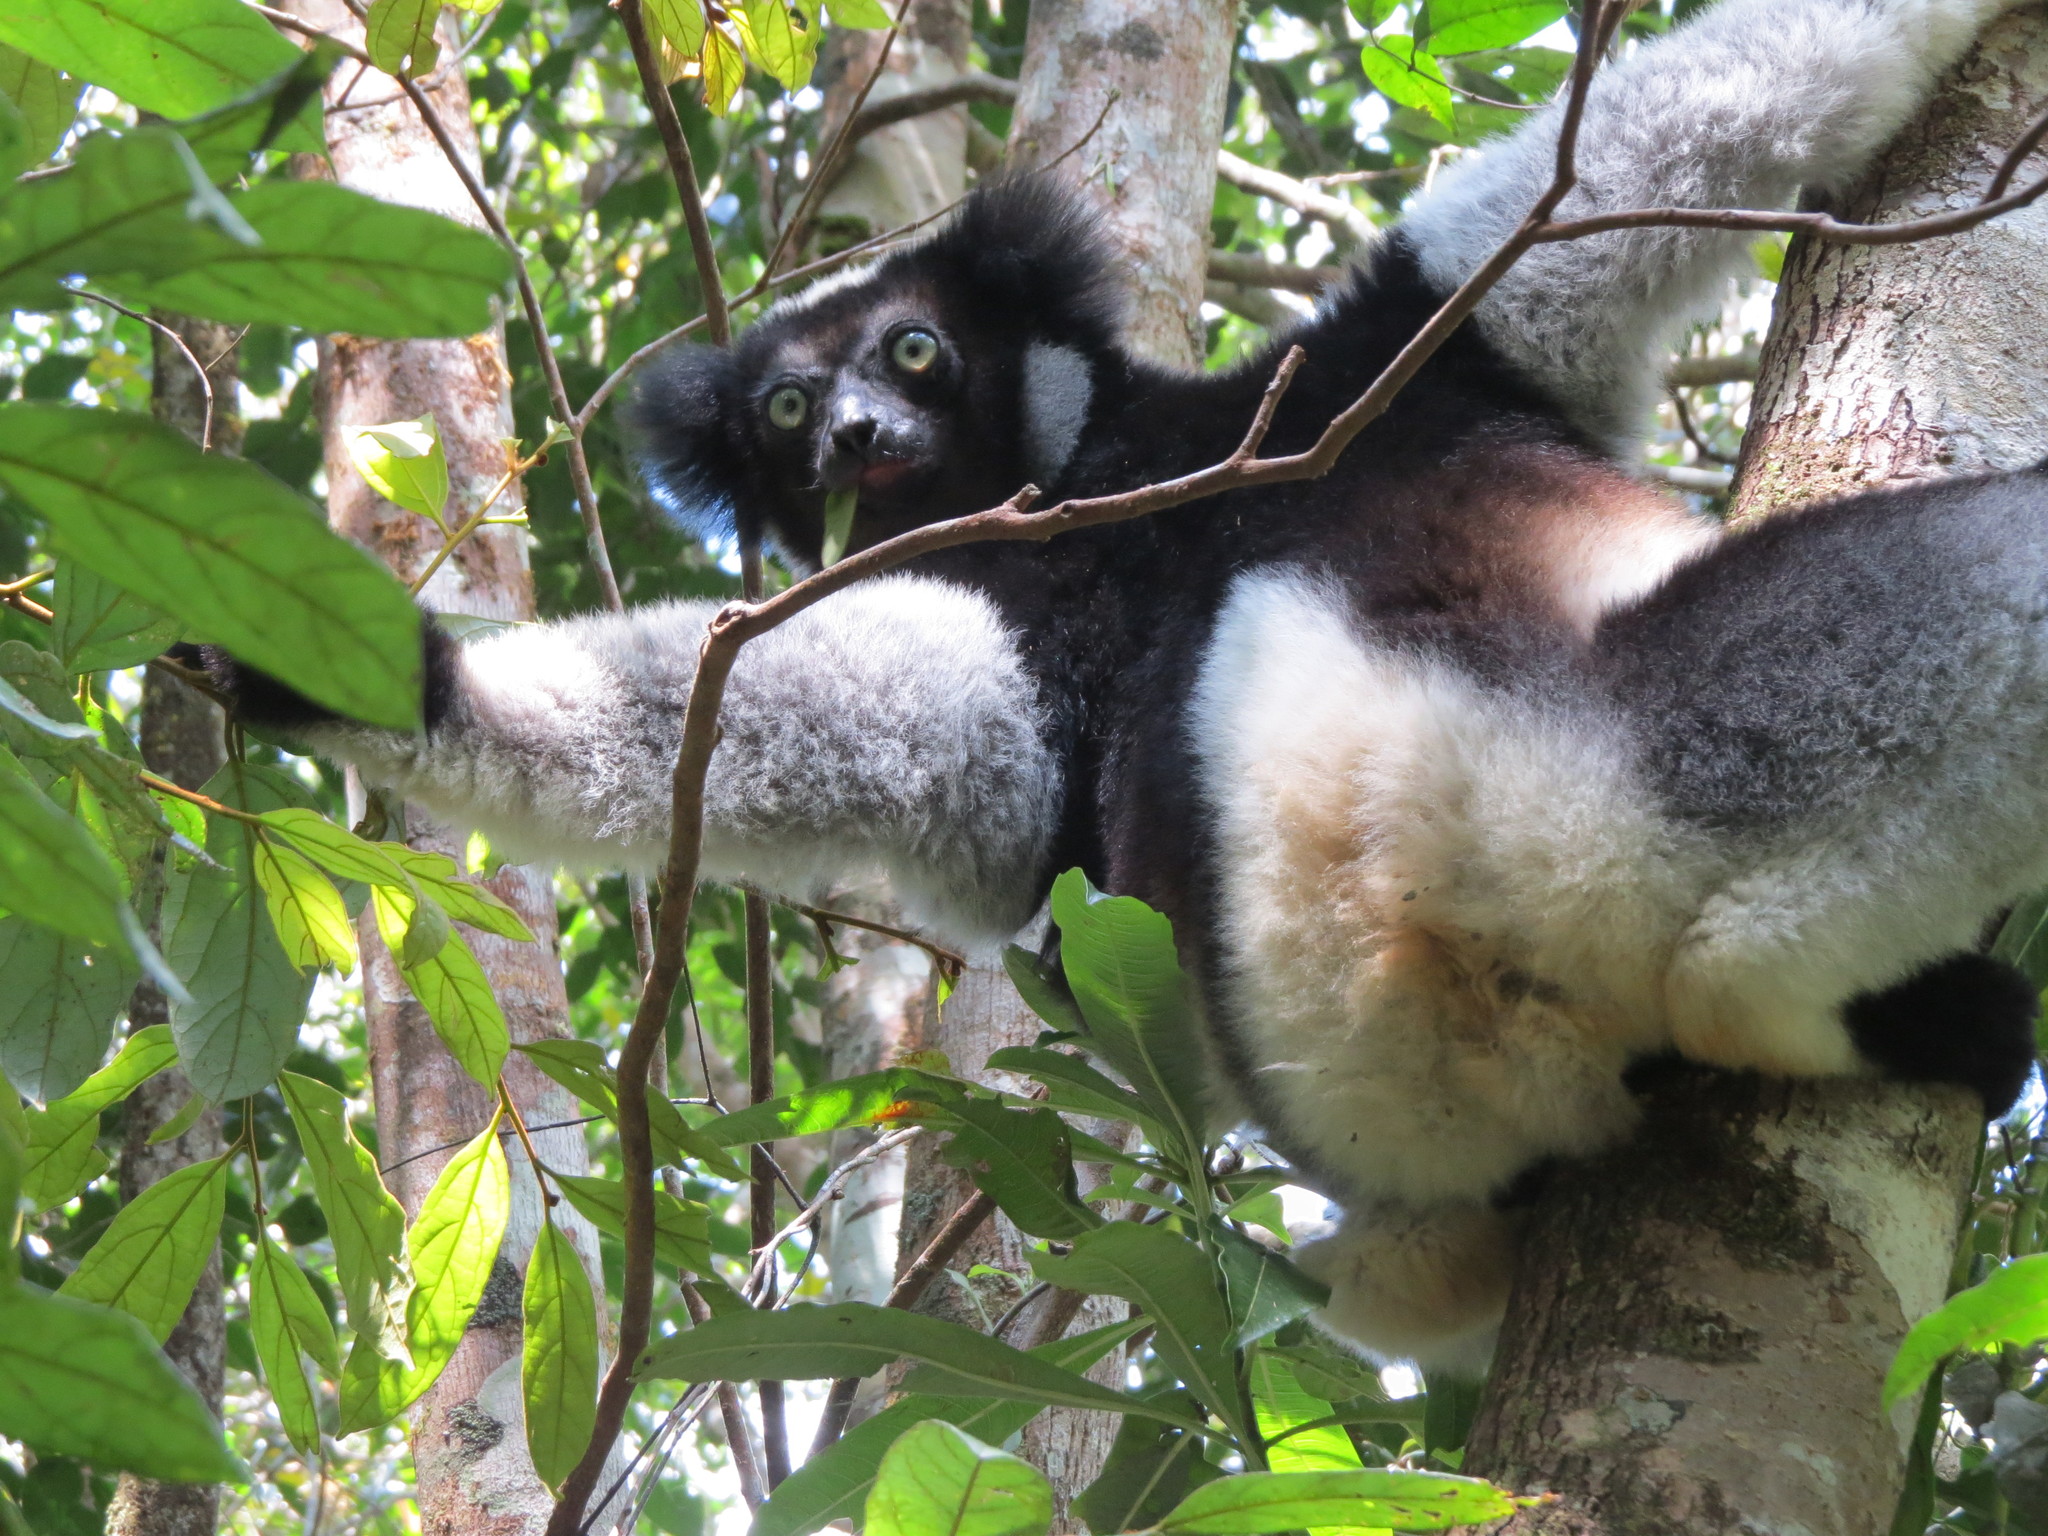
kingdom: Animalia
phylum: Chordata
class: Mammalia
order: Primates
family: Indriidae
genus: Indri
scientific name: Indri indri
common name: Indri
